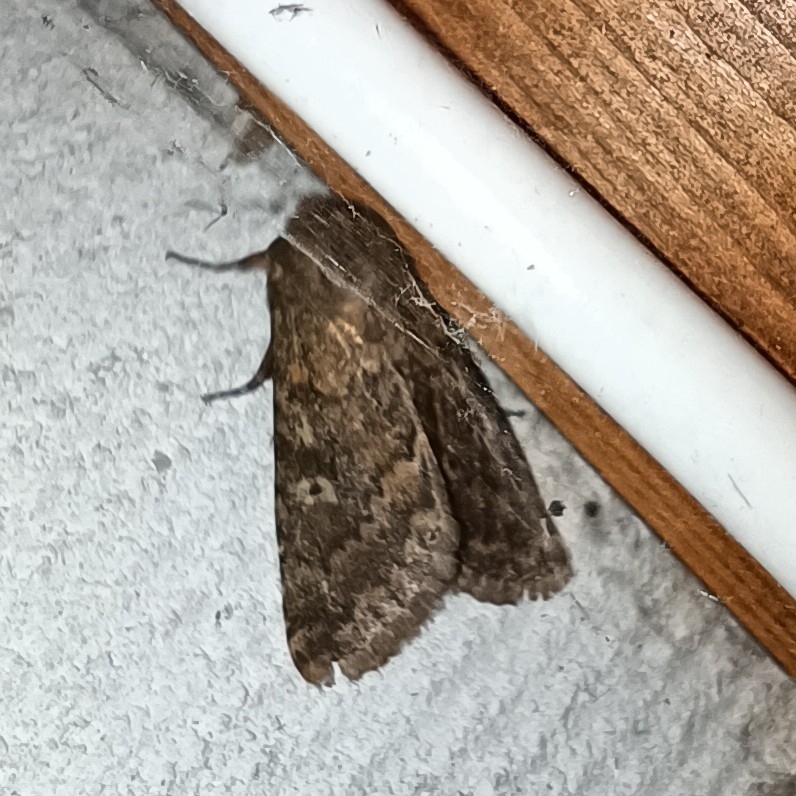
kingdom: Animalia
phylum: Arthropoda
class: Insecta
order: Lepidoptera
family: Noctuidae
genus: Dasypolia
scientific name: Dasypolia templi
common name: Brindled ochre
